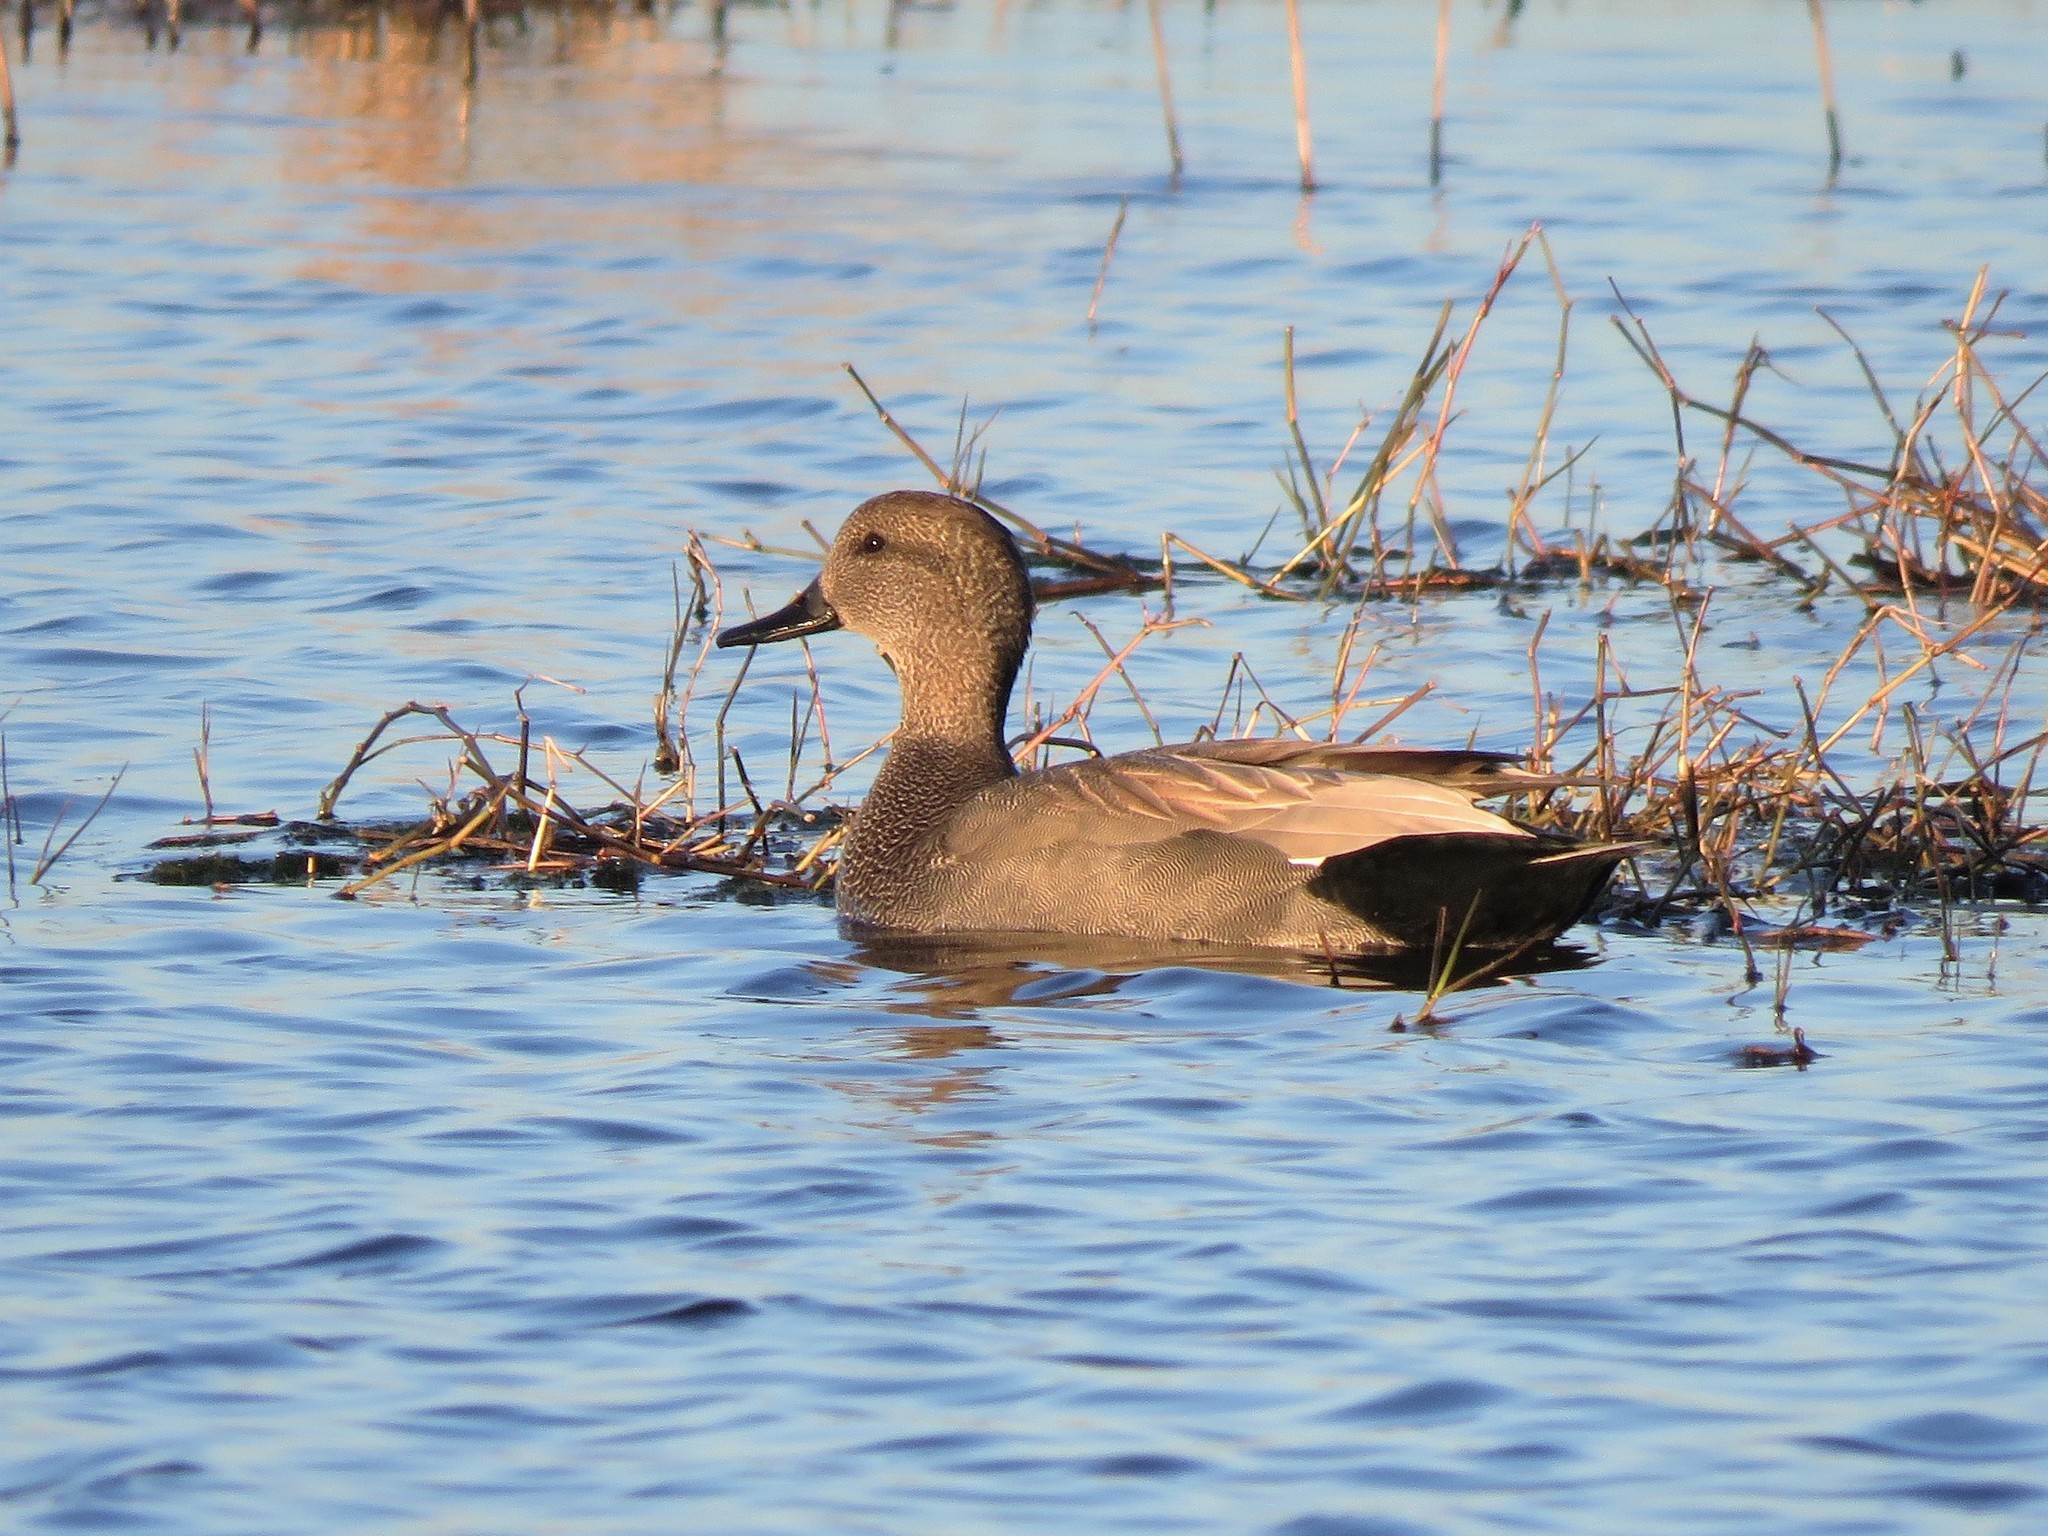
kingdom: Animalia
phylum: Chordata
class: Aves
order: Anseriformes
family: Anatidae
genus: Mareca
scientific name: Mareca strepera
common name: Gadwall
